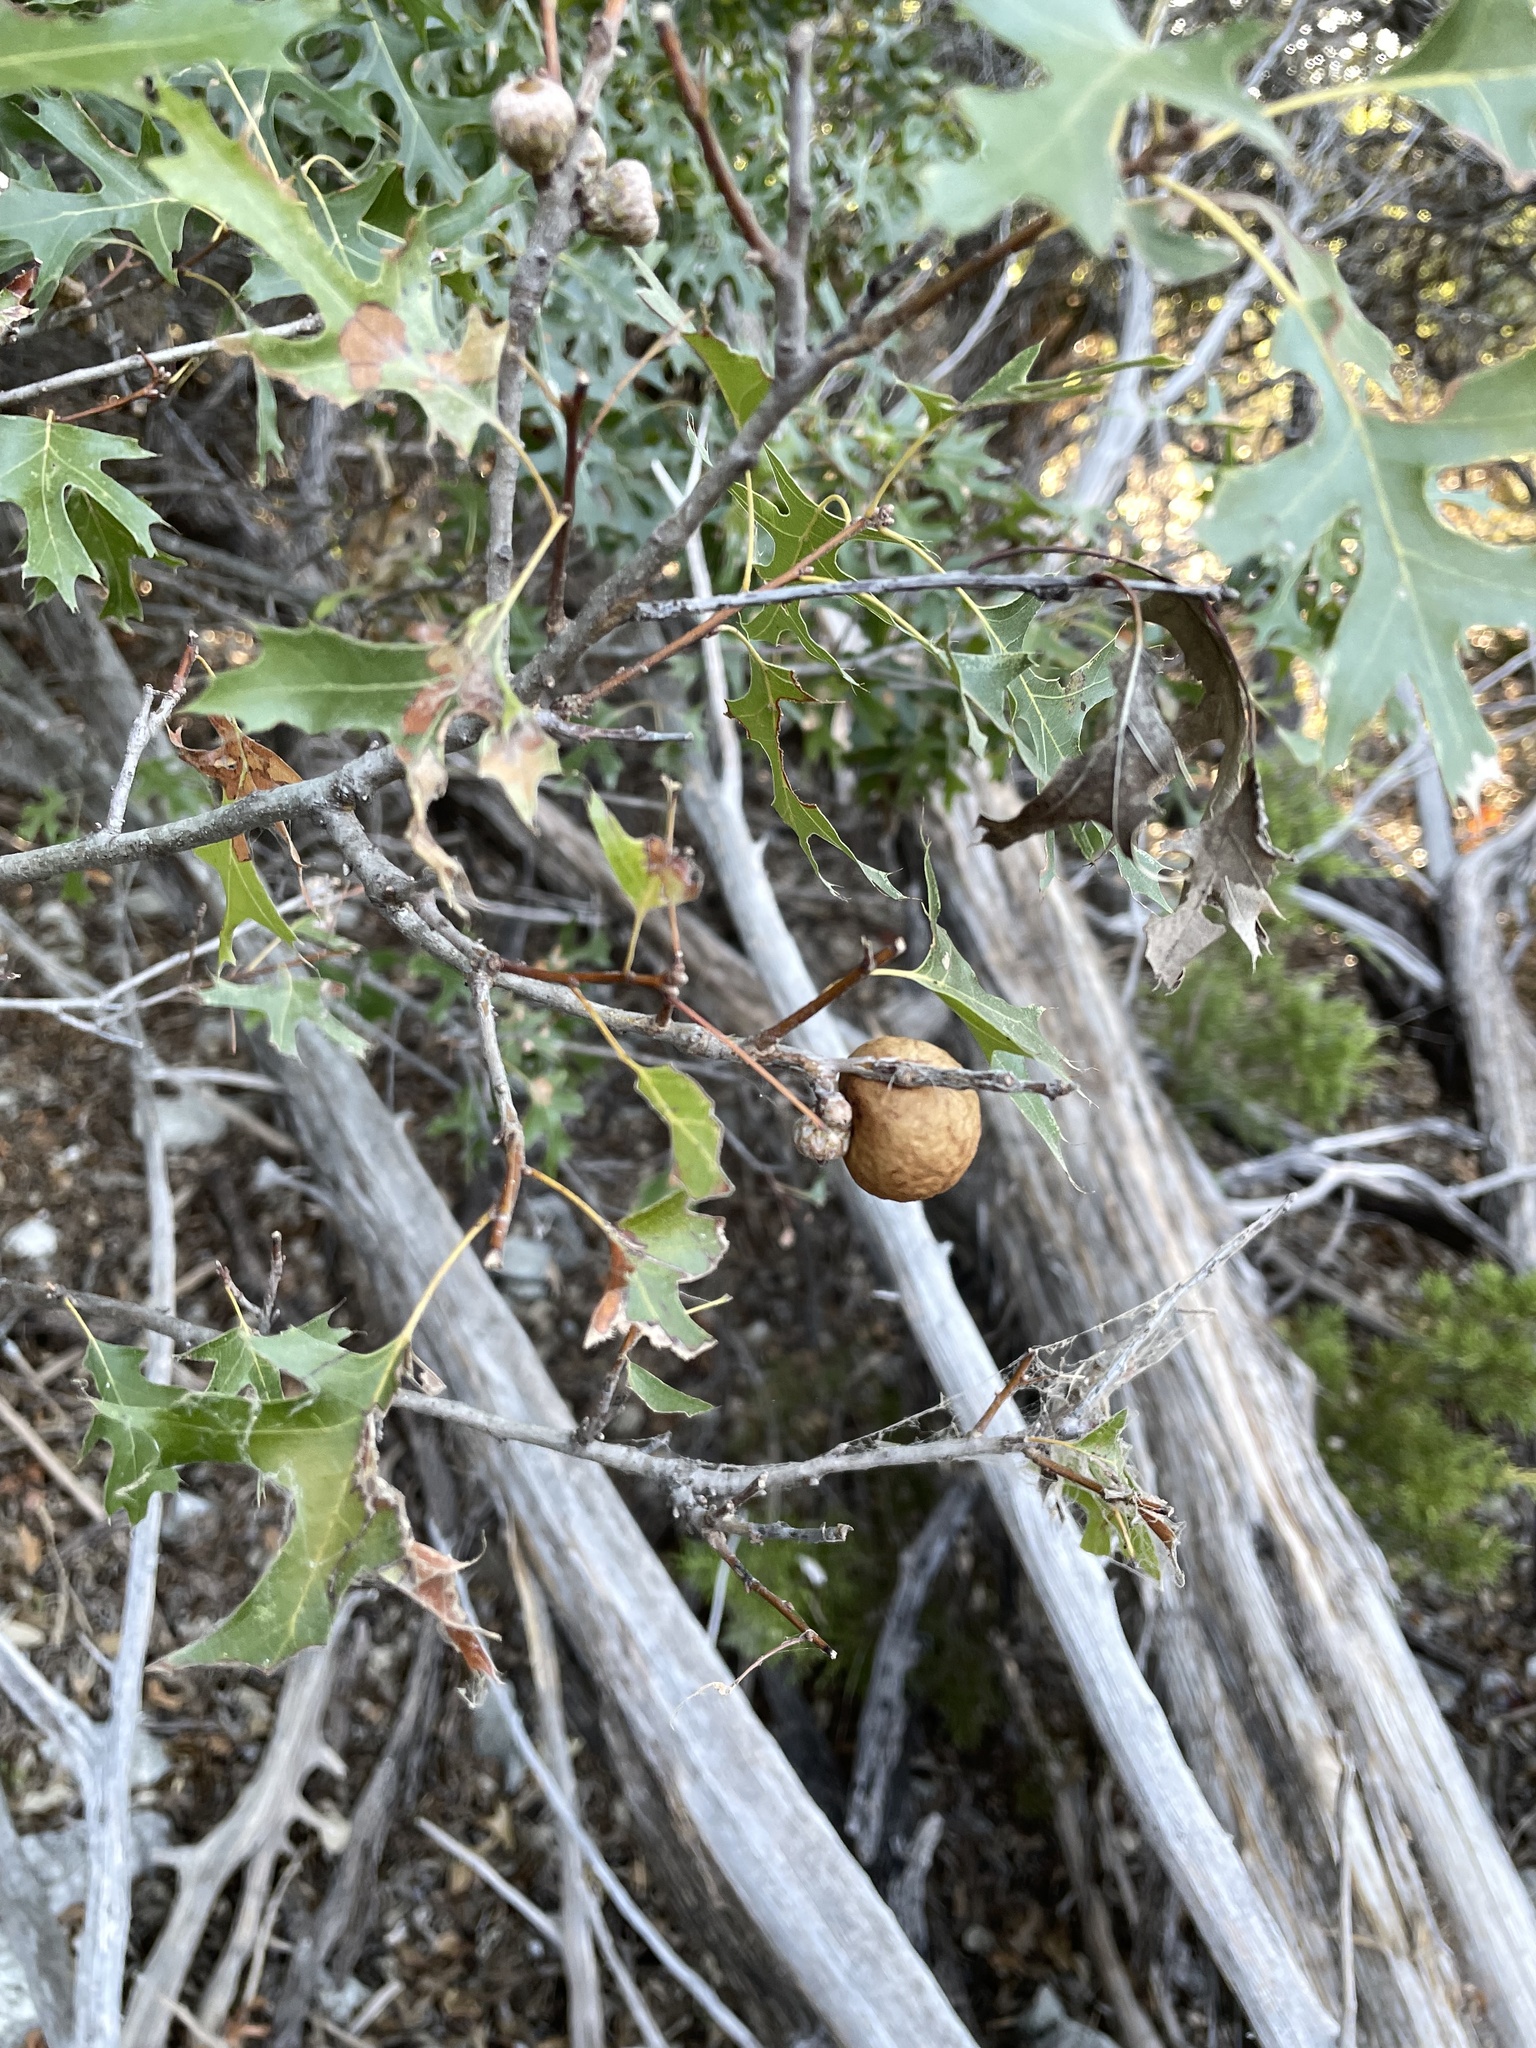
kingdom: Animalia
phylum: Arthropoda
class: Insecta
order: Hymenoptera
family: Cynipidae
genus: Amphibolips
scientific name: Amphibolips
